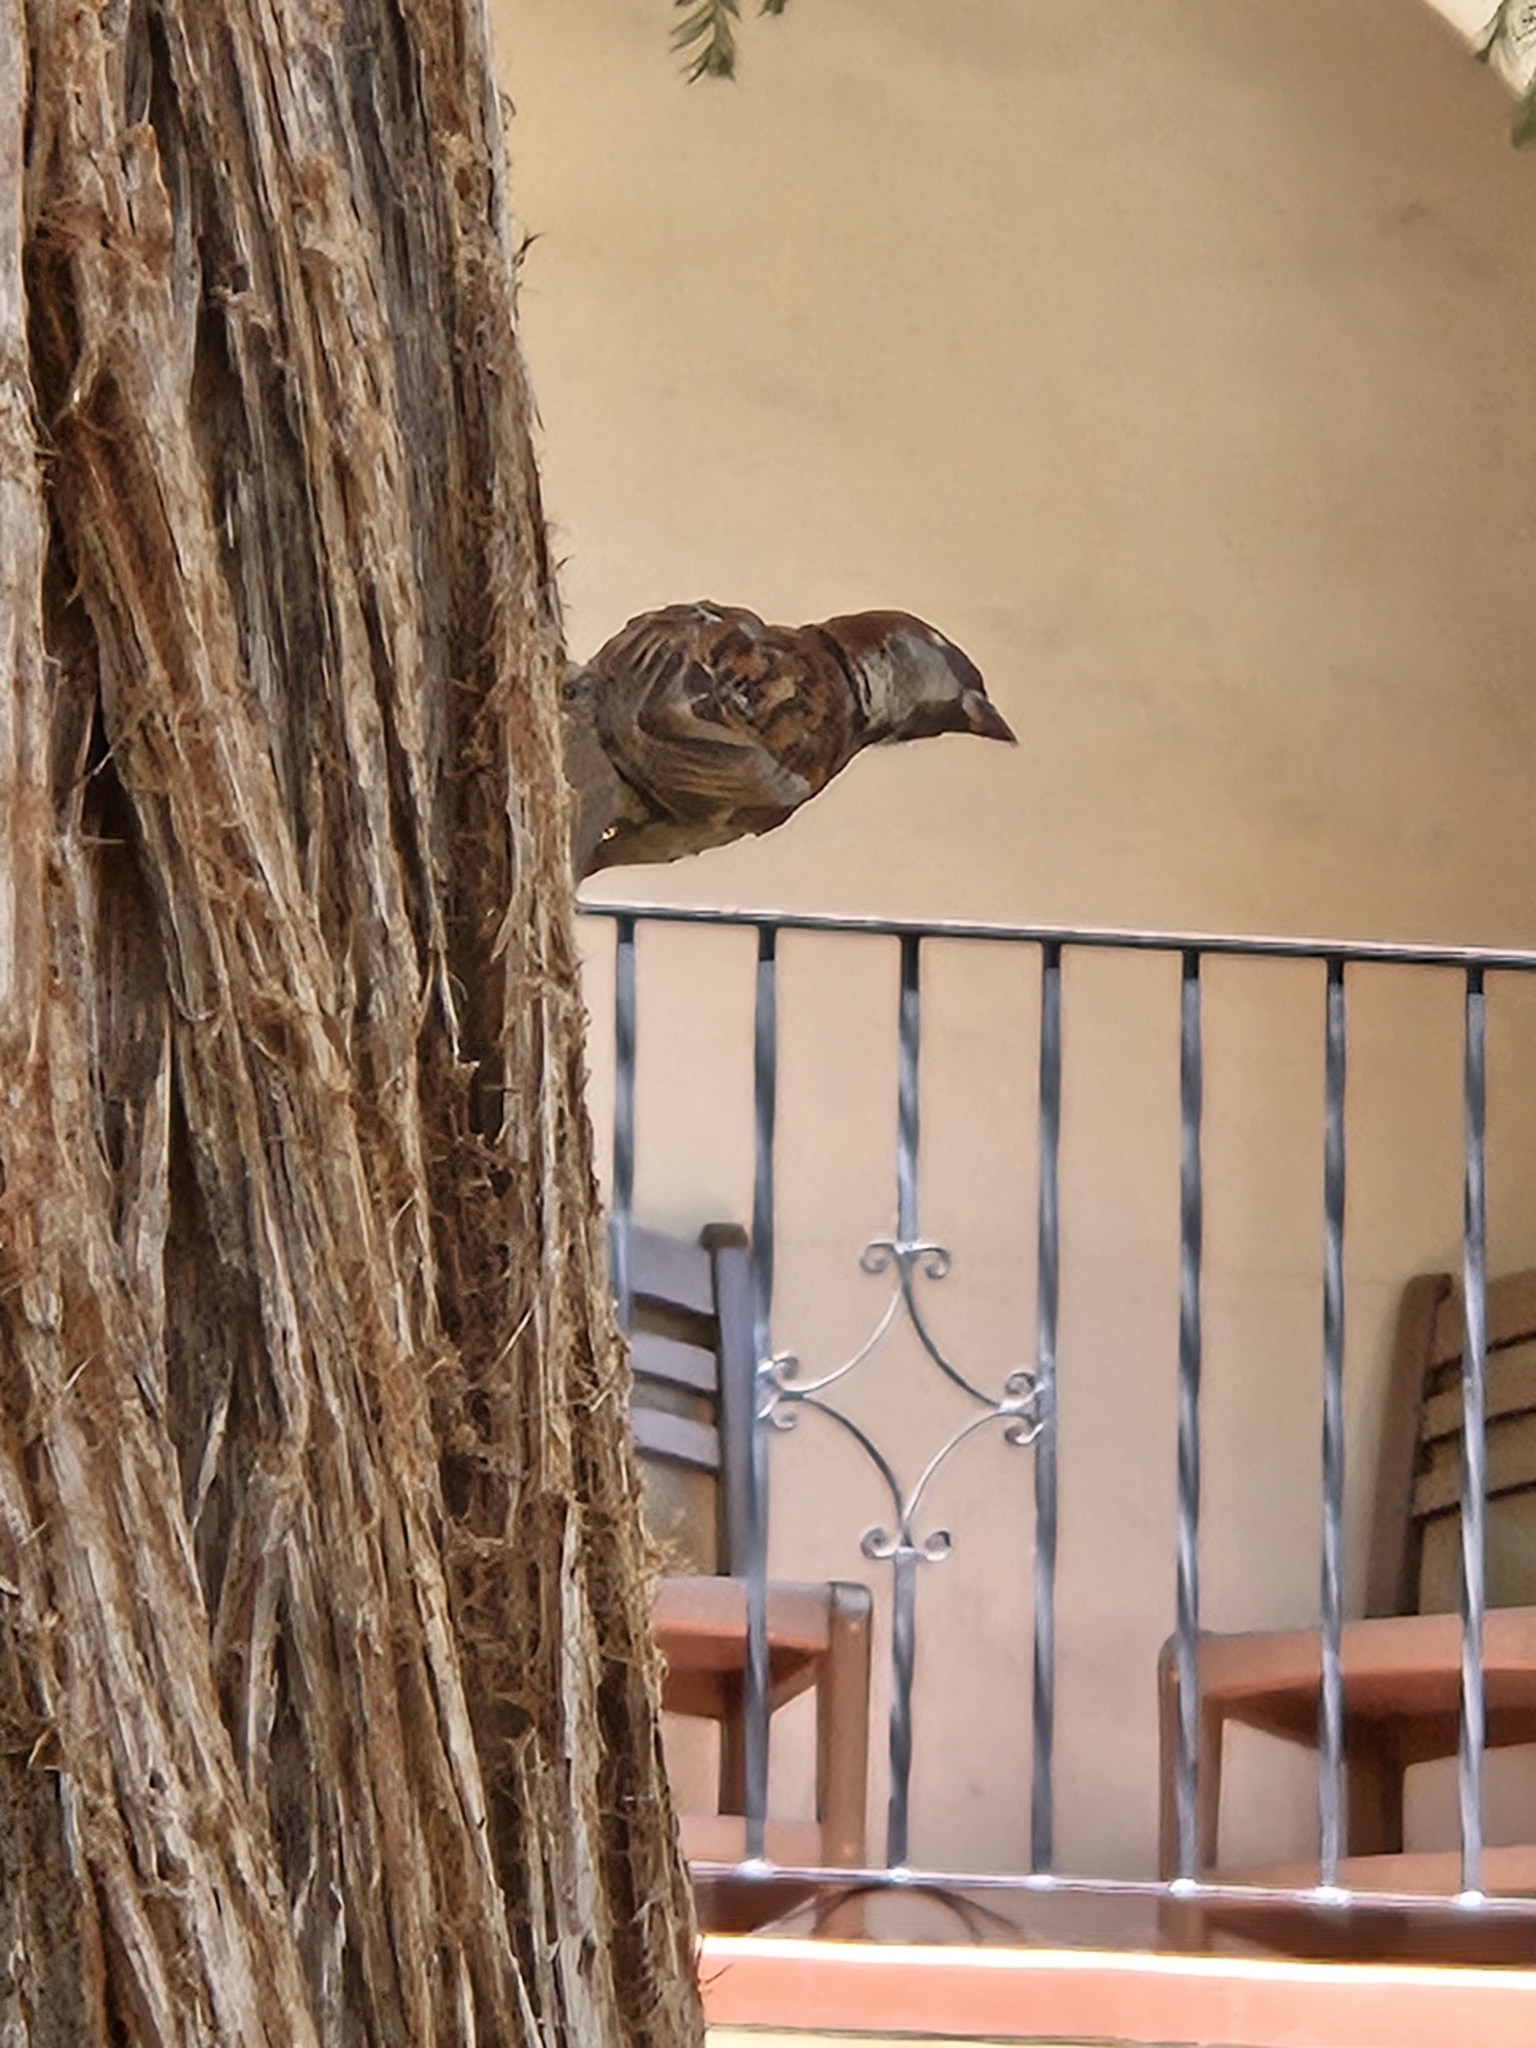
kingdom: Animalia
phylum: Chordata
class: Aves
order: Passeriformes
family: Passeridae
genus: Passer
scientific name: Passer domesticus
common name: House sparrow
